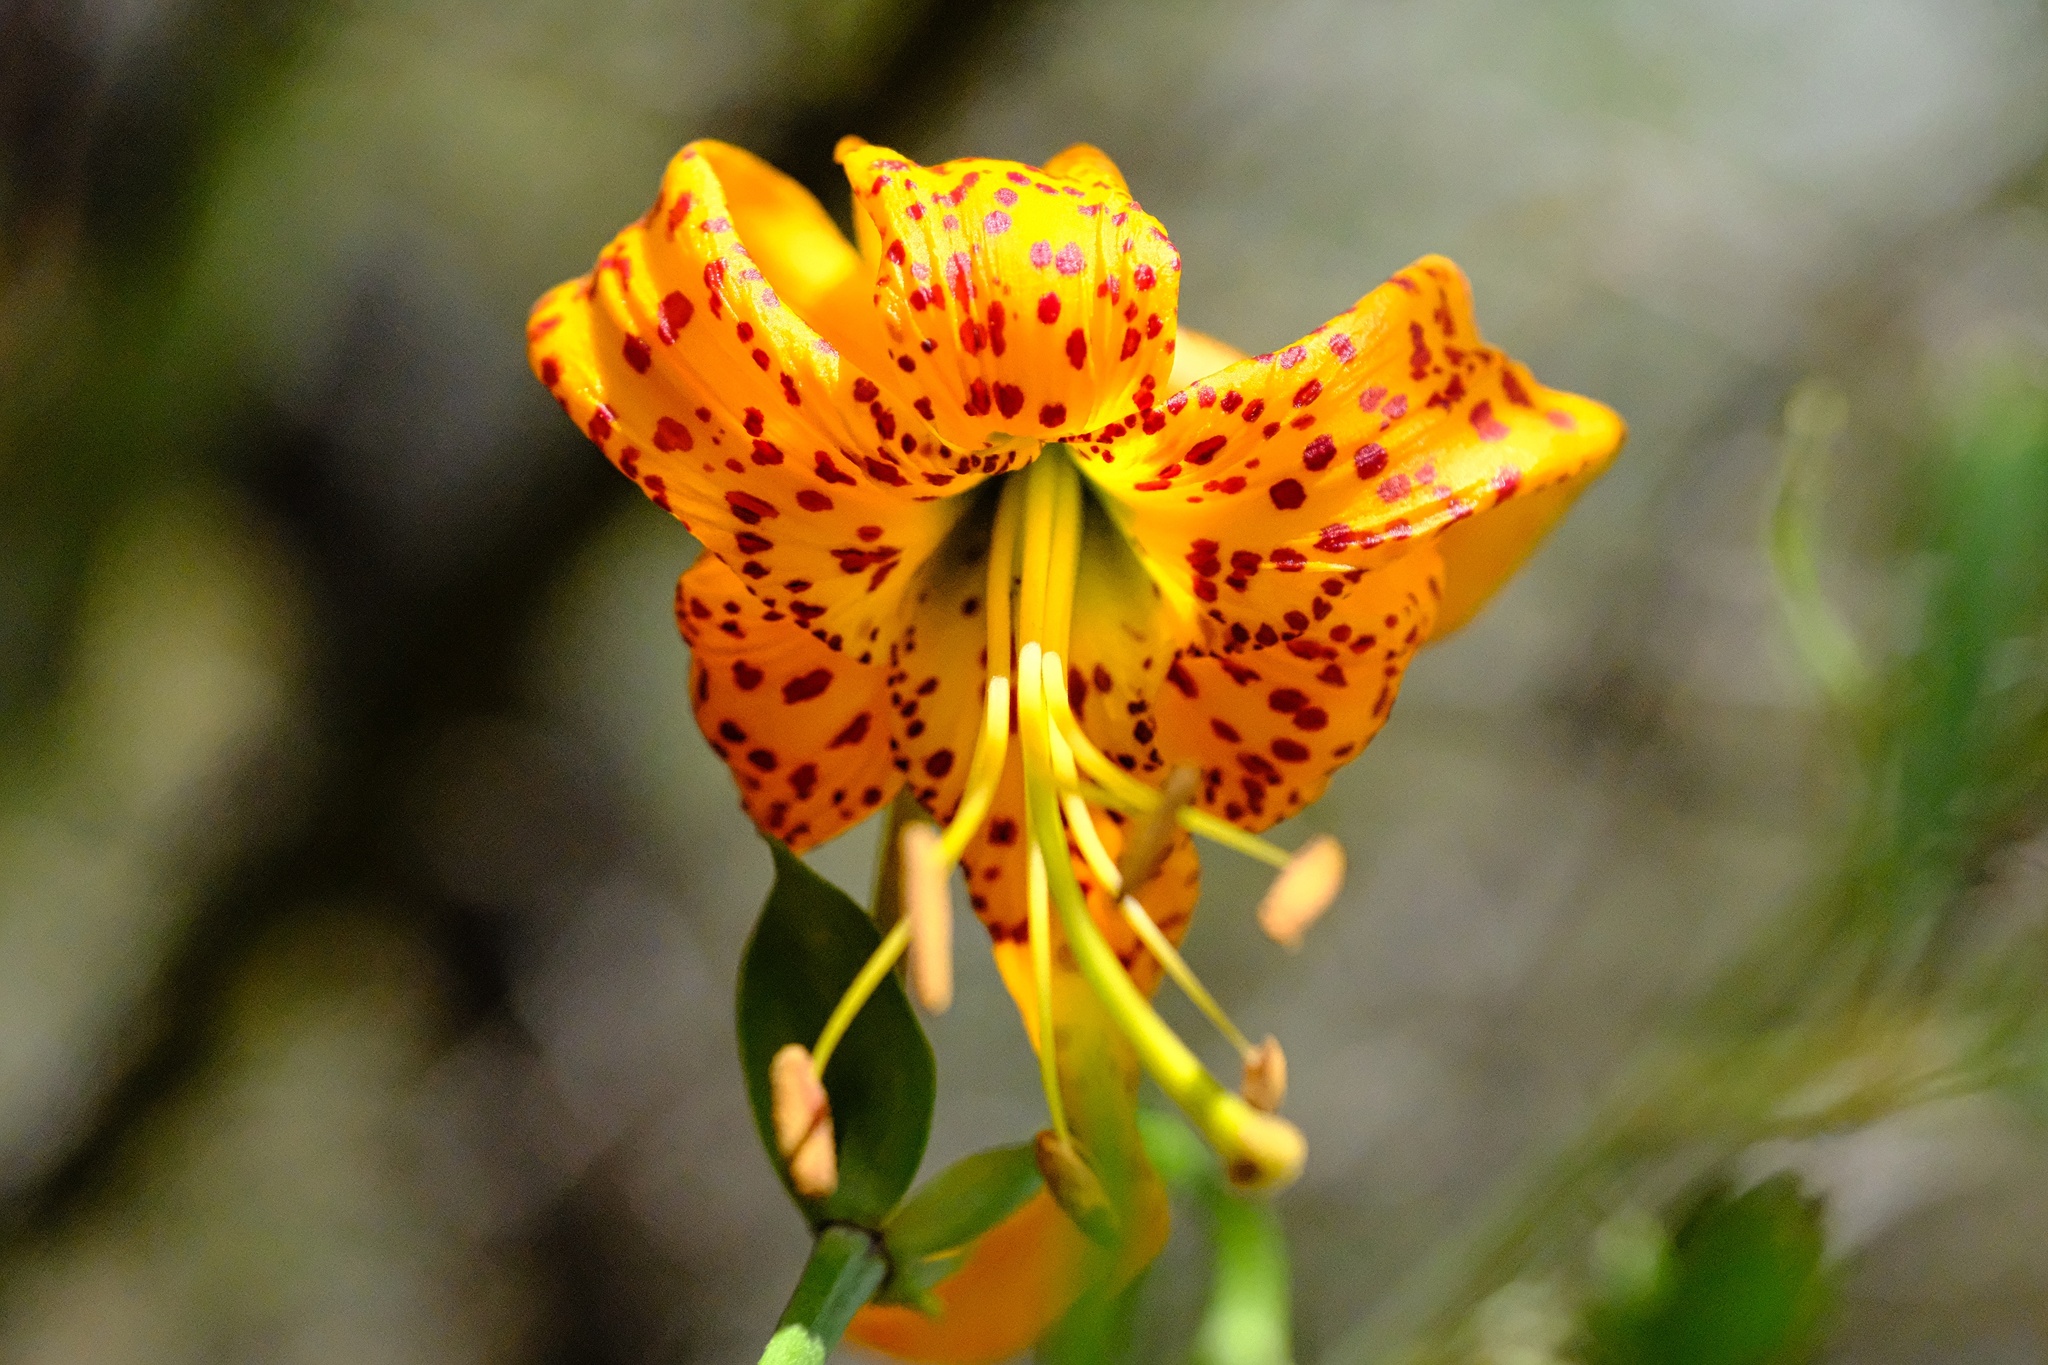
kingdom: Plantae
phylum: Tracheophyta
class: Liliopsida
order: Liliales
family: Liliaceae
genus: Lilium
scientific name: Lilium humboldtii
